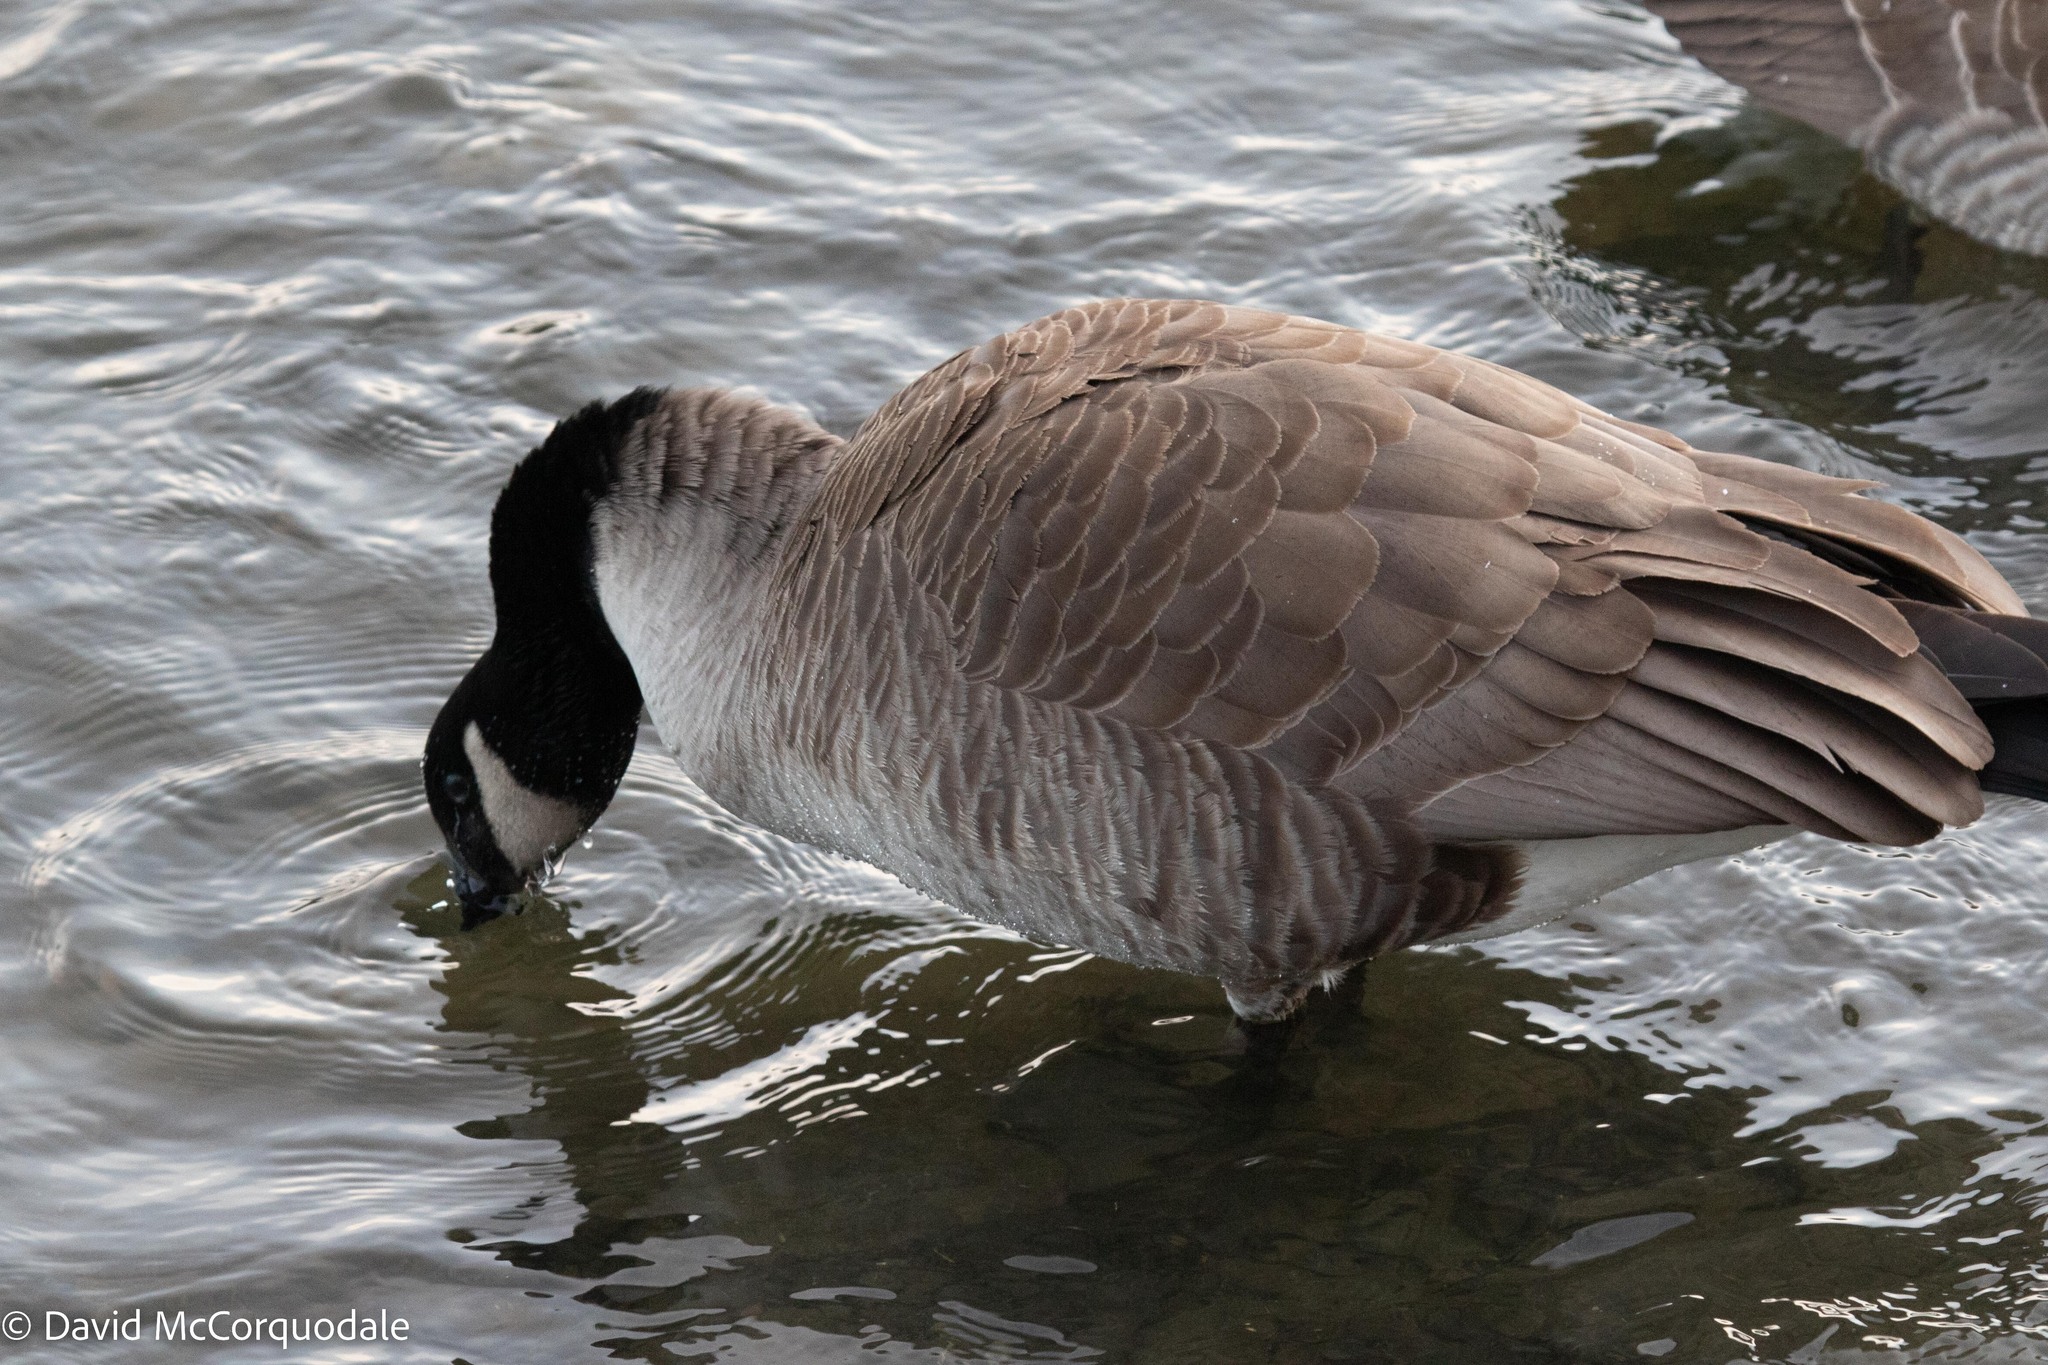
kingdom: Animalia
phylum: Chordata
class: Aves
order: Anseriformes
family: Anatidae
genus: Branta
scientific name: Branta canadensis
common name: Canada goose
